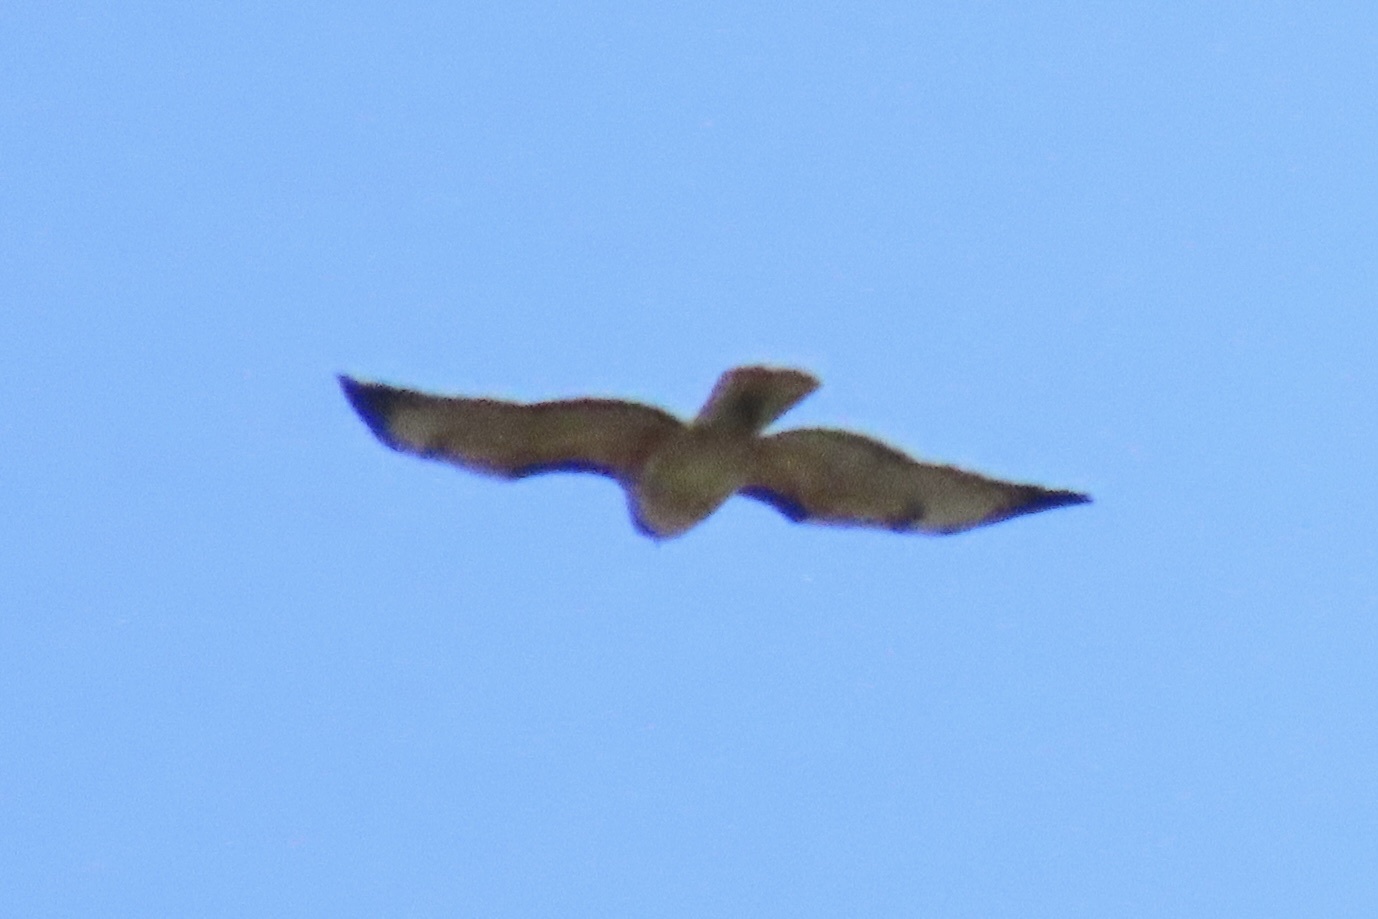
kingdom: Animalia
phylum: Chordata
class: Aves
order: Accipitriformes
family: Accipitridae
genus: Buteo
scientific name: Buteo jamaicensis
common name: Red-tailed hawk
